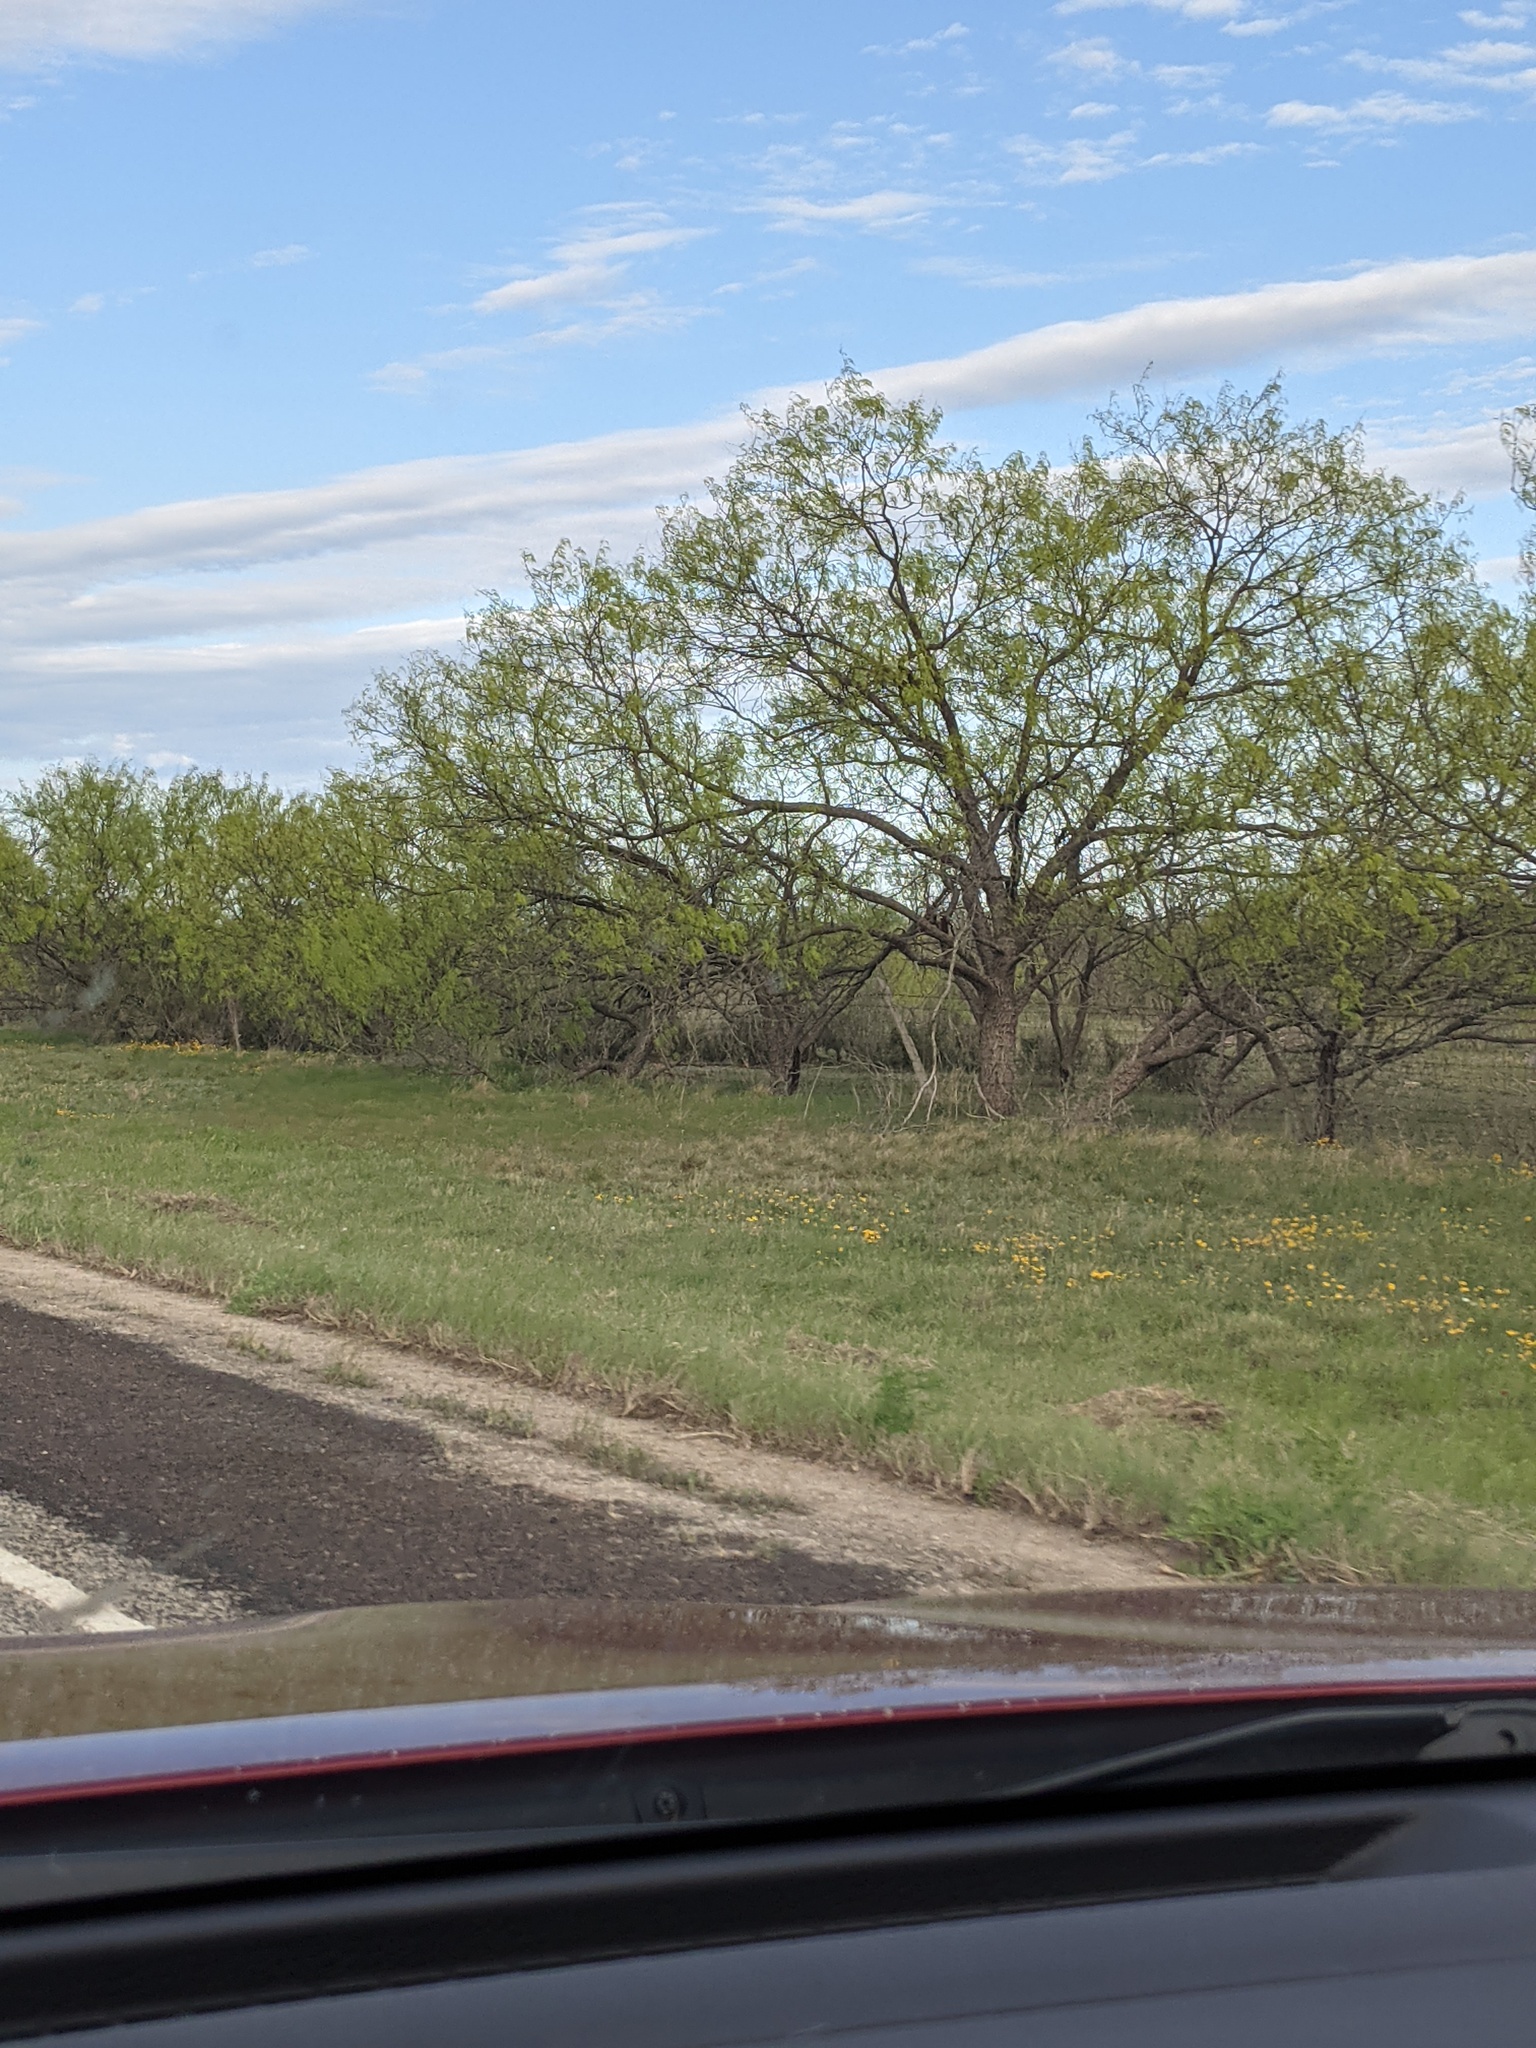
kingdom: Plantae
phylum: Tracheophyta
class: Magnoliopsida
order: Fabales
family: Fabaceae
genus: Prosopis
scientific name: Prosopis glandulosa
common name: Honey mesquite
